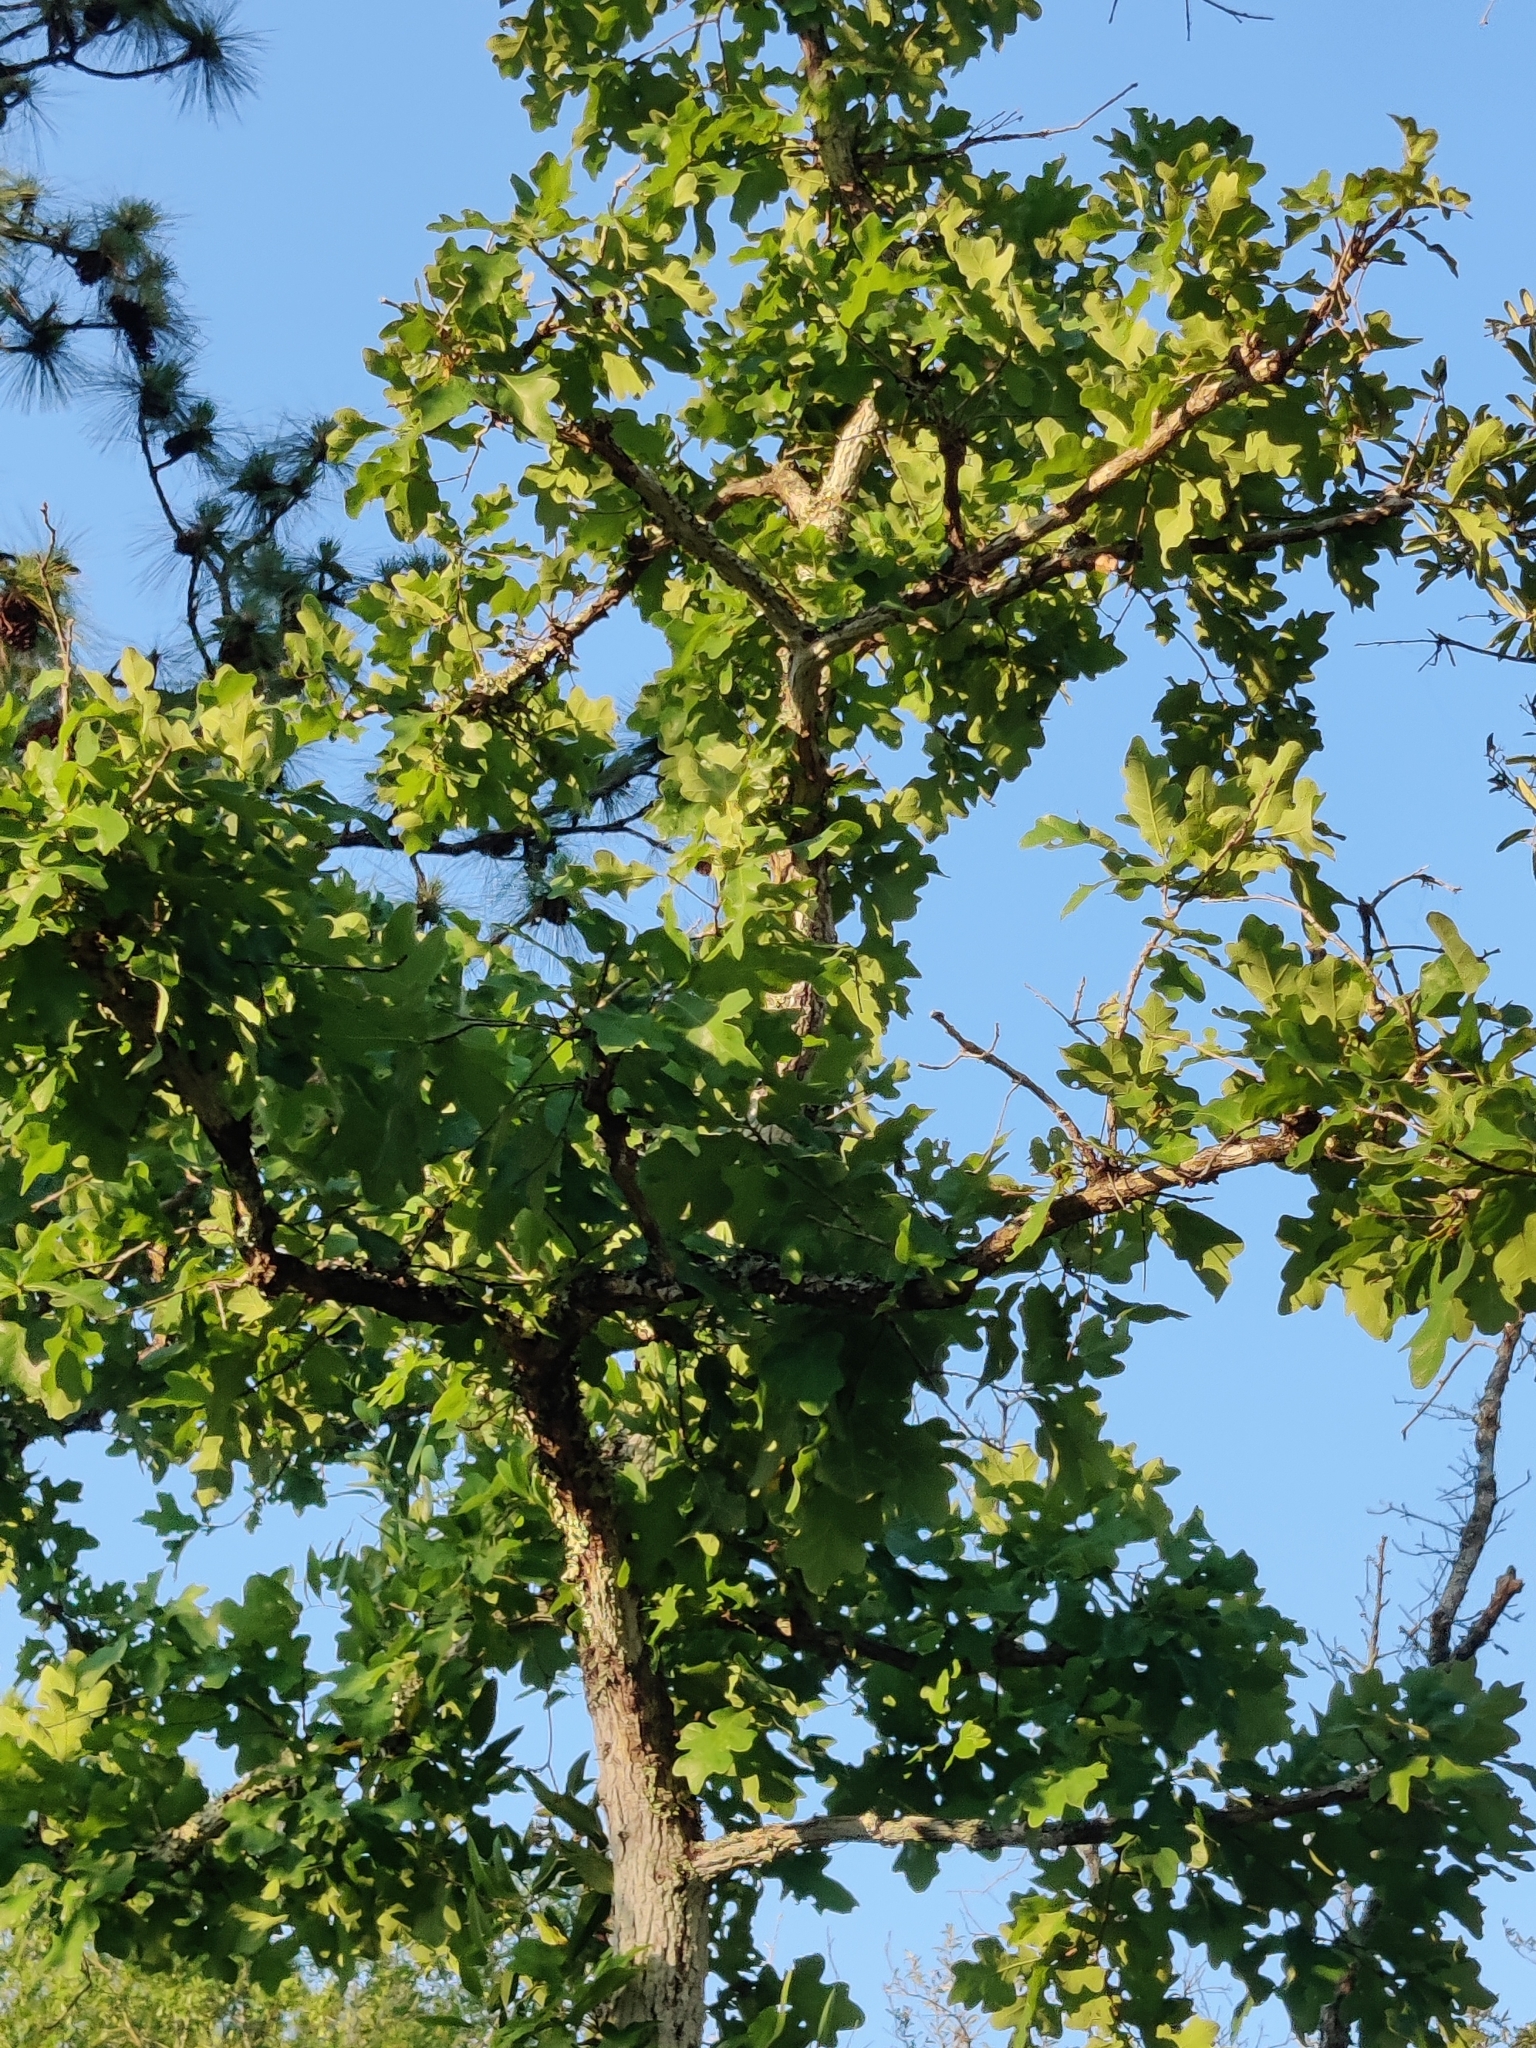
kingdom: Plantae
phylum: Tracheophyta
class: Magnoliopsida
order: Fagales
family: Fagaceae
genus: Quercus
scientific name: Quercus margaretiae
